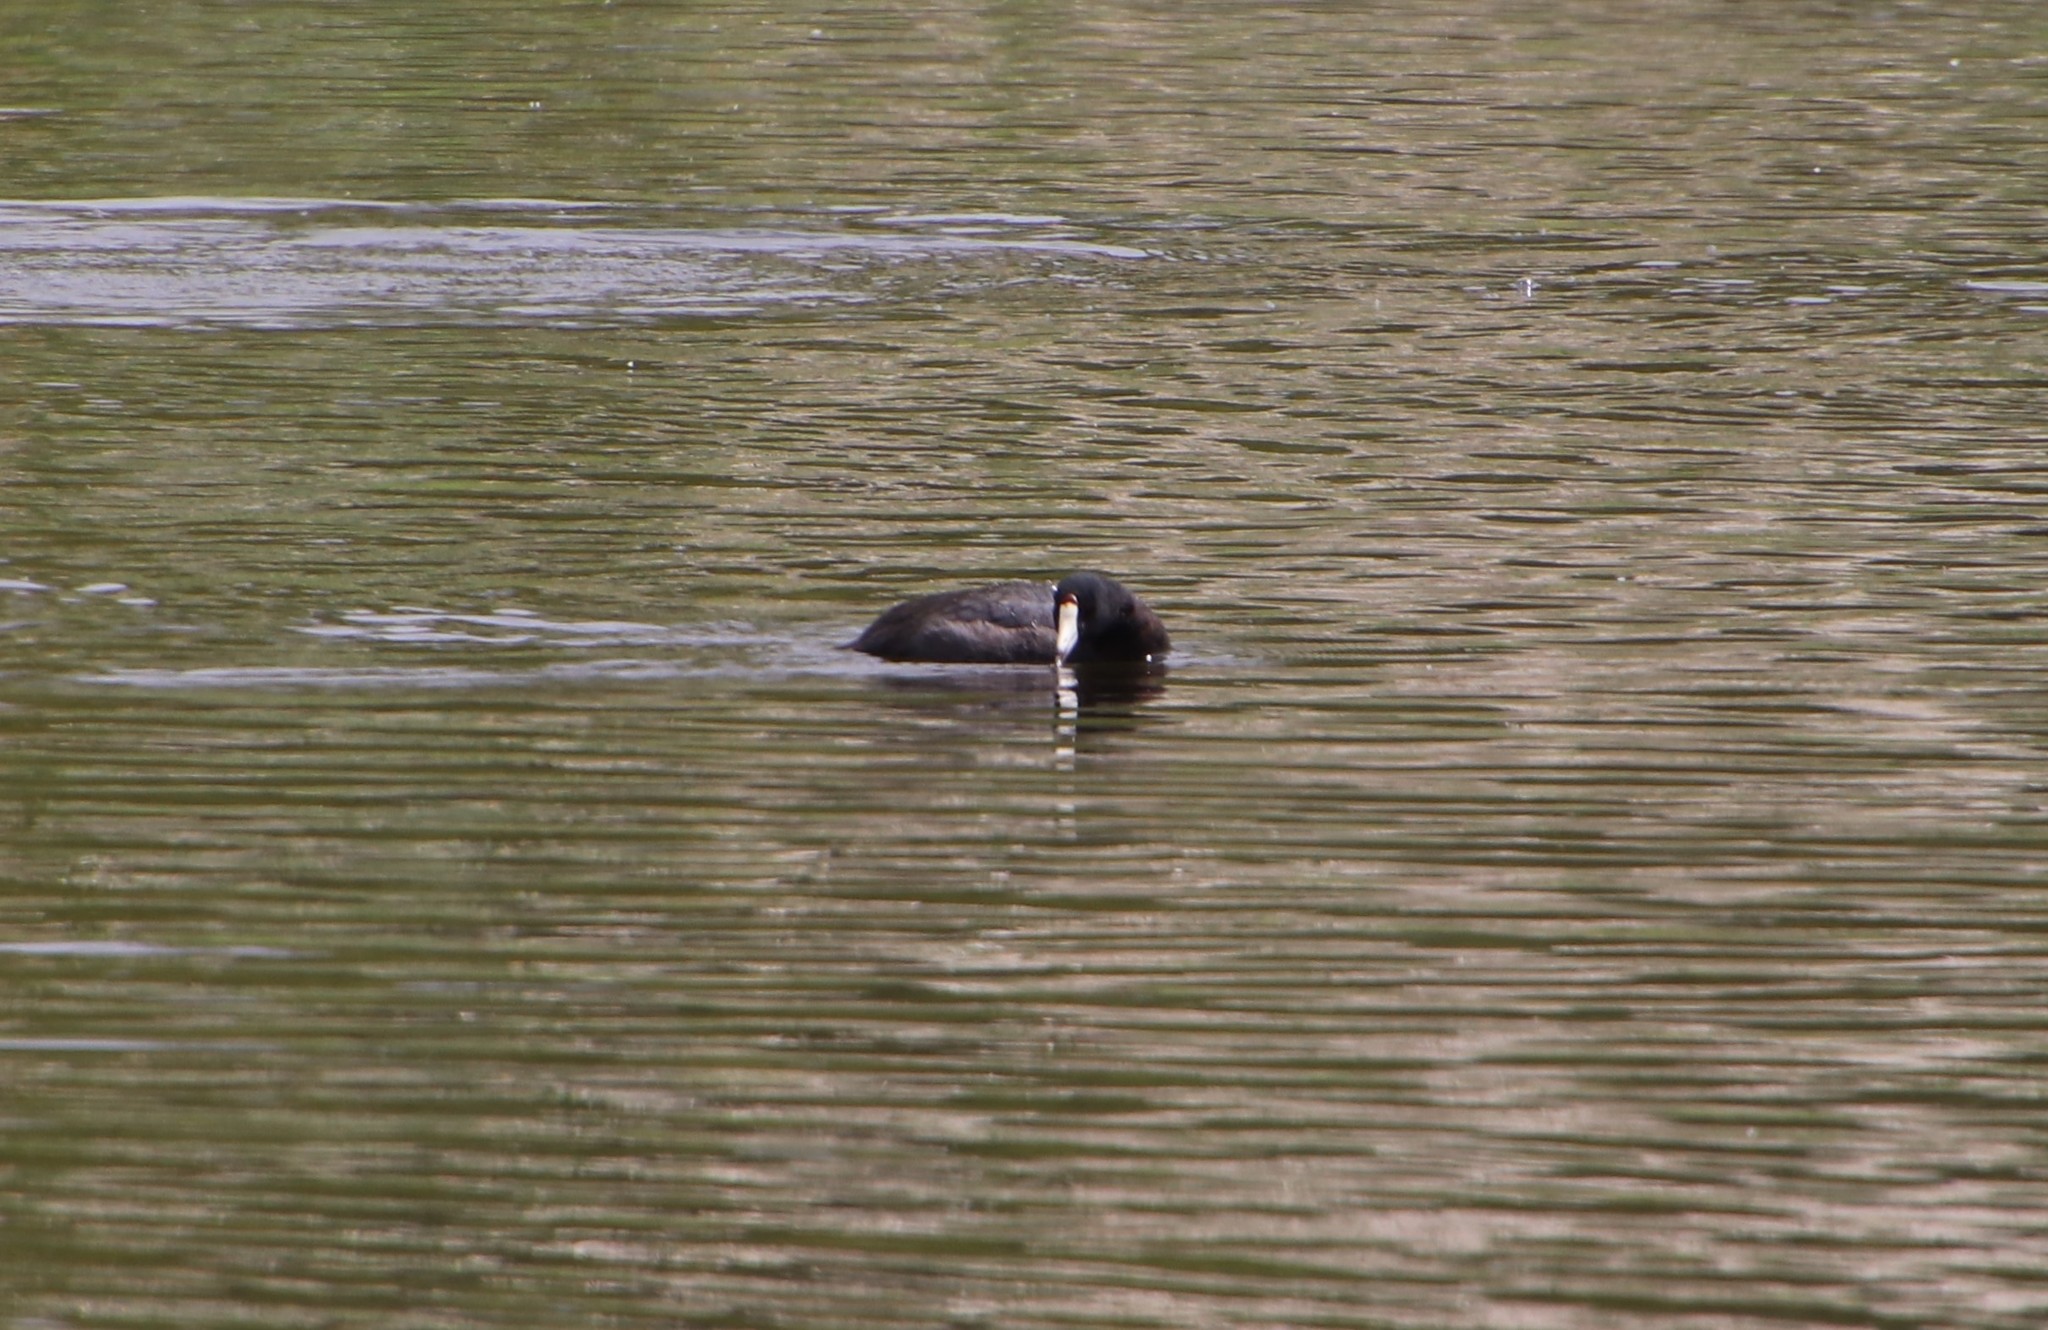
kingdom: Animalia
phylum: Chordata
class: Aves
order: Gruiformes
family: Rallidae
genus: Fulica
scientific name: Fulica americana
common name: American coot
